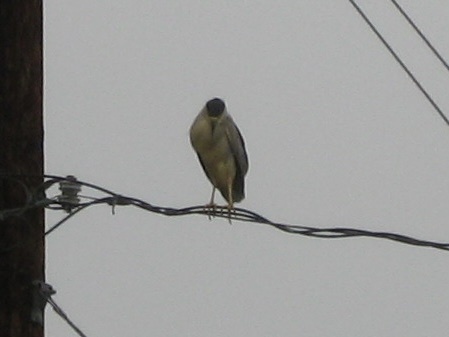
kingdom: Animalia
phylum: Chordata
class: Aves
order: Pelecaniformes
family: Ardeidae
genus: Nycticorax
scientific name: Nycticorax nycticorax
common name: Black-crowned night heron
